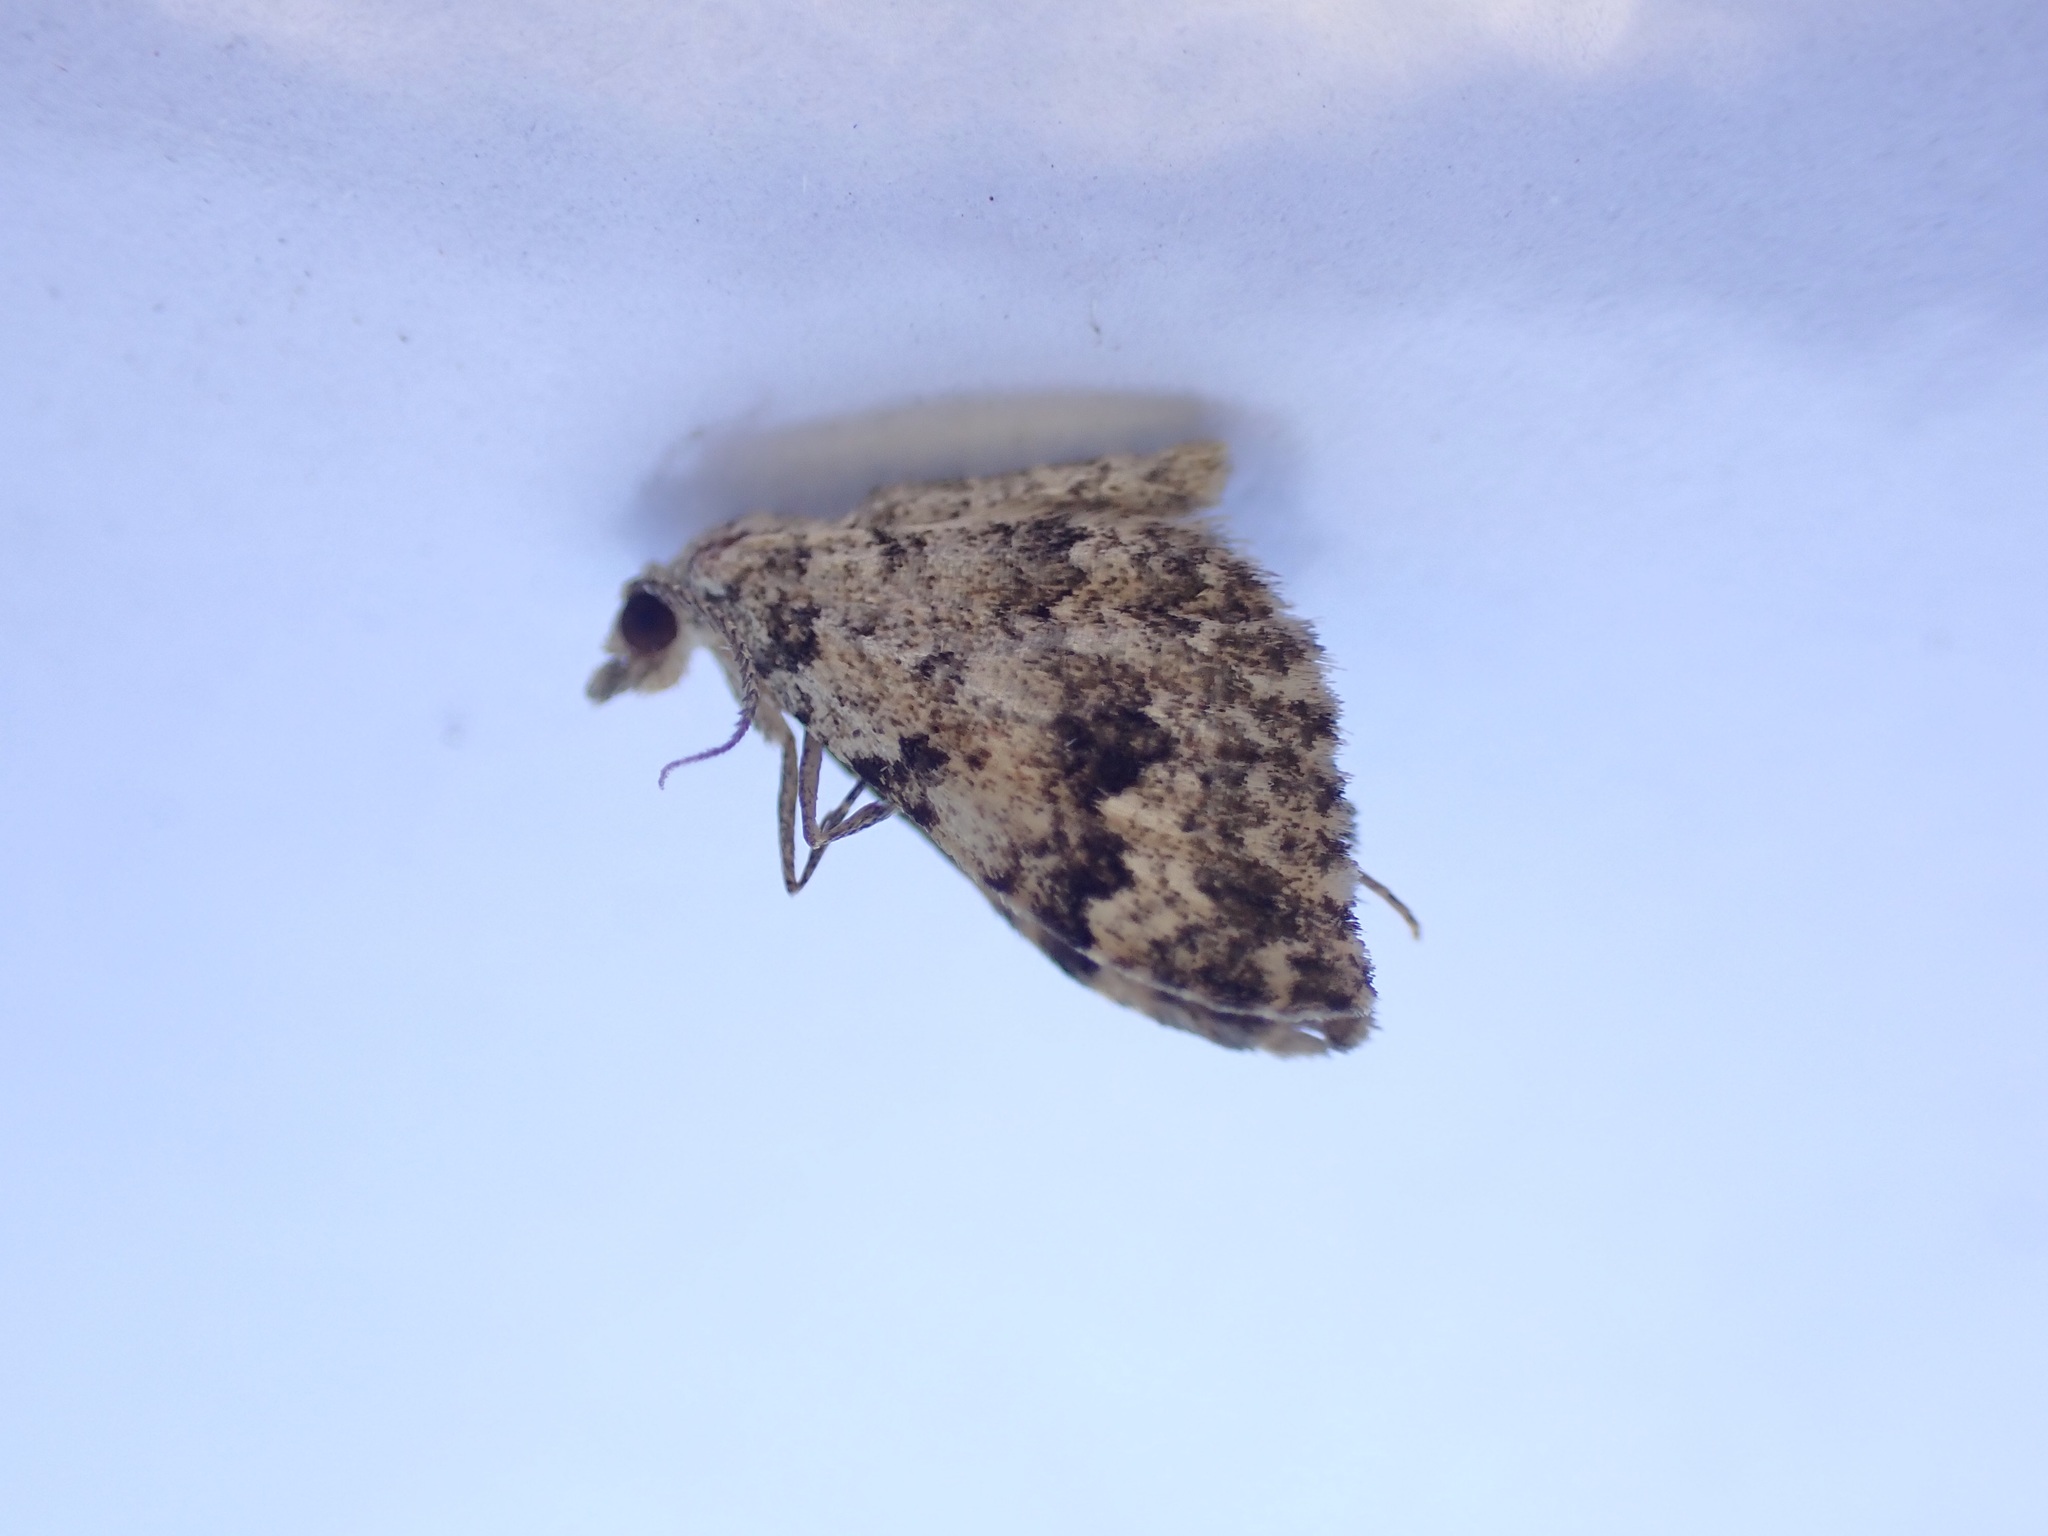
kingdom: Animalia
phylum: Arthropoda
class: Insecta
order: Lepidoptera
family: Geometridae
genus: Helastia
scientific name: Helastia cinerearia
